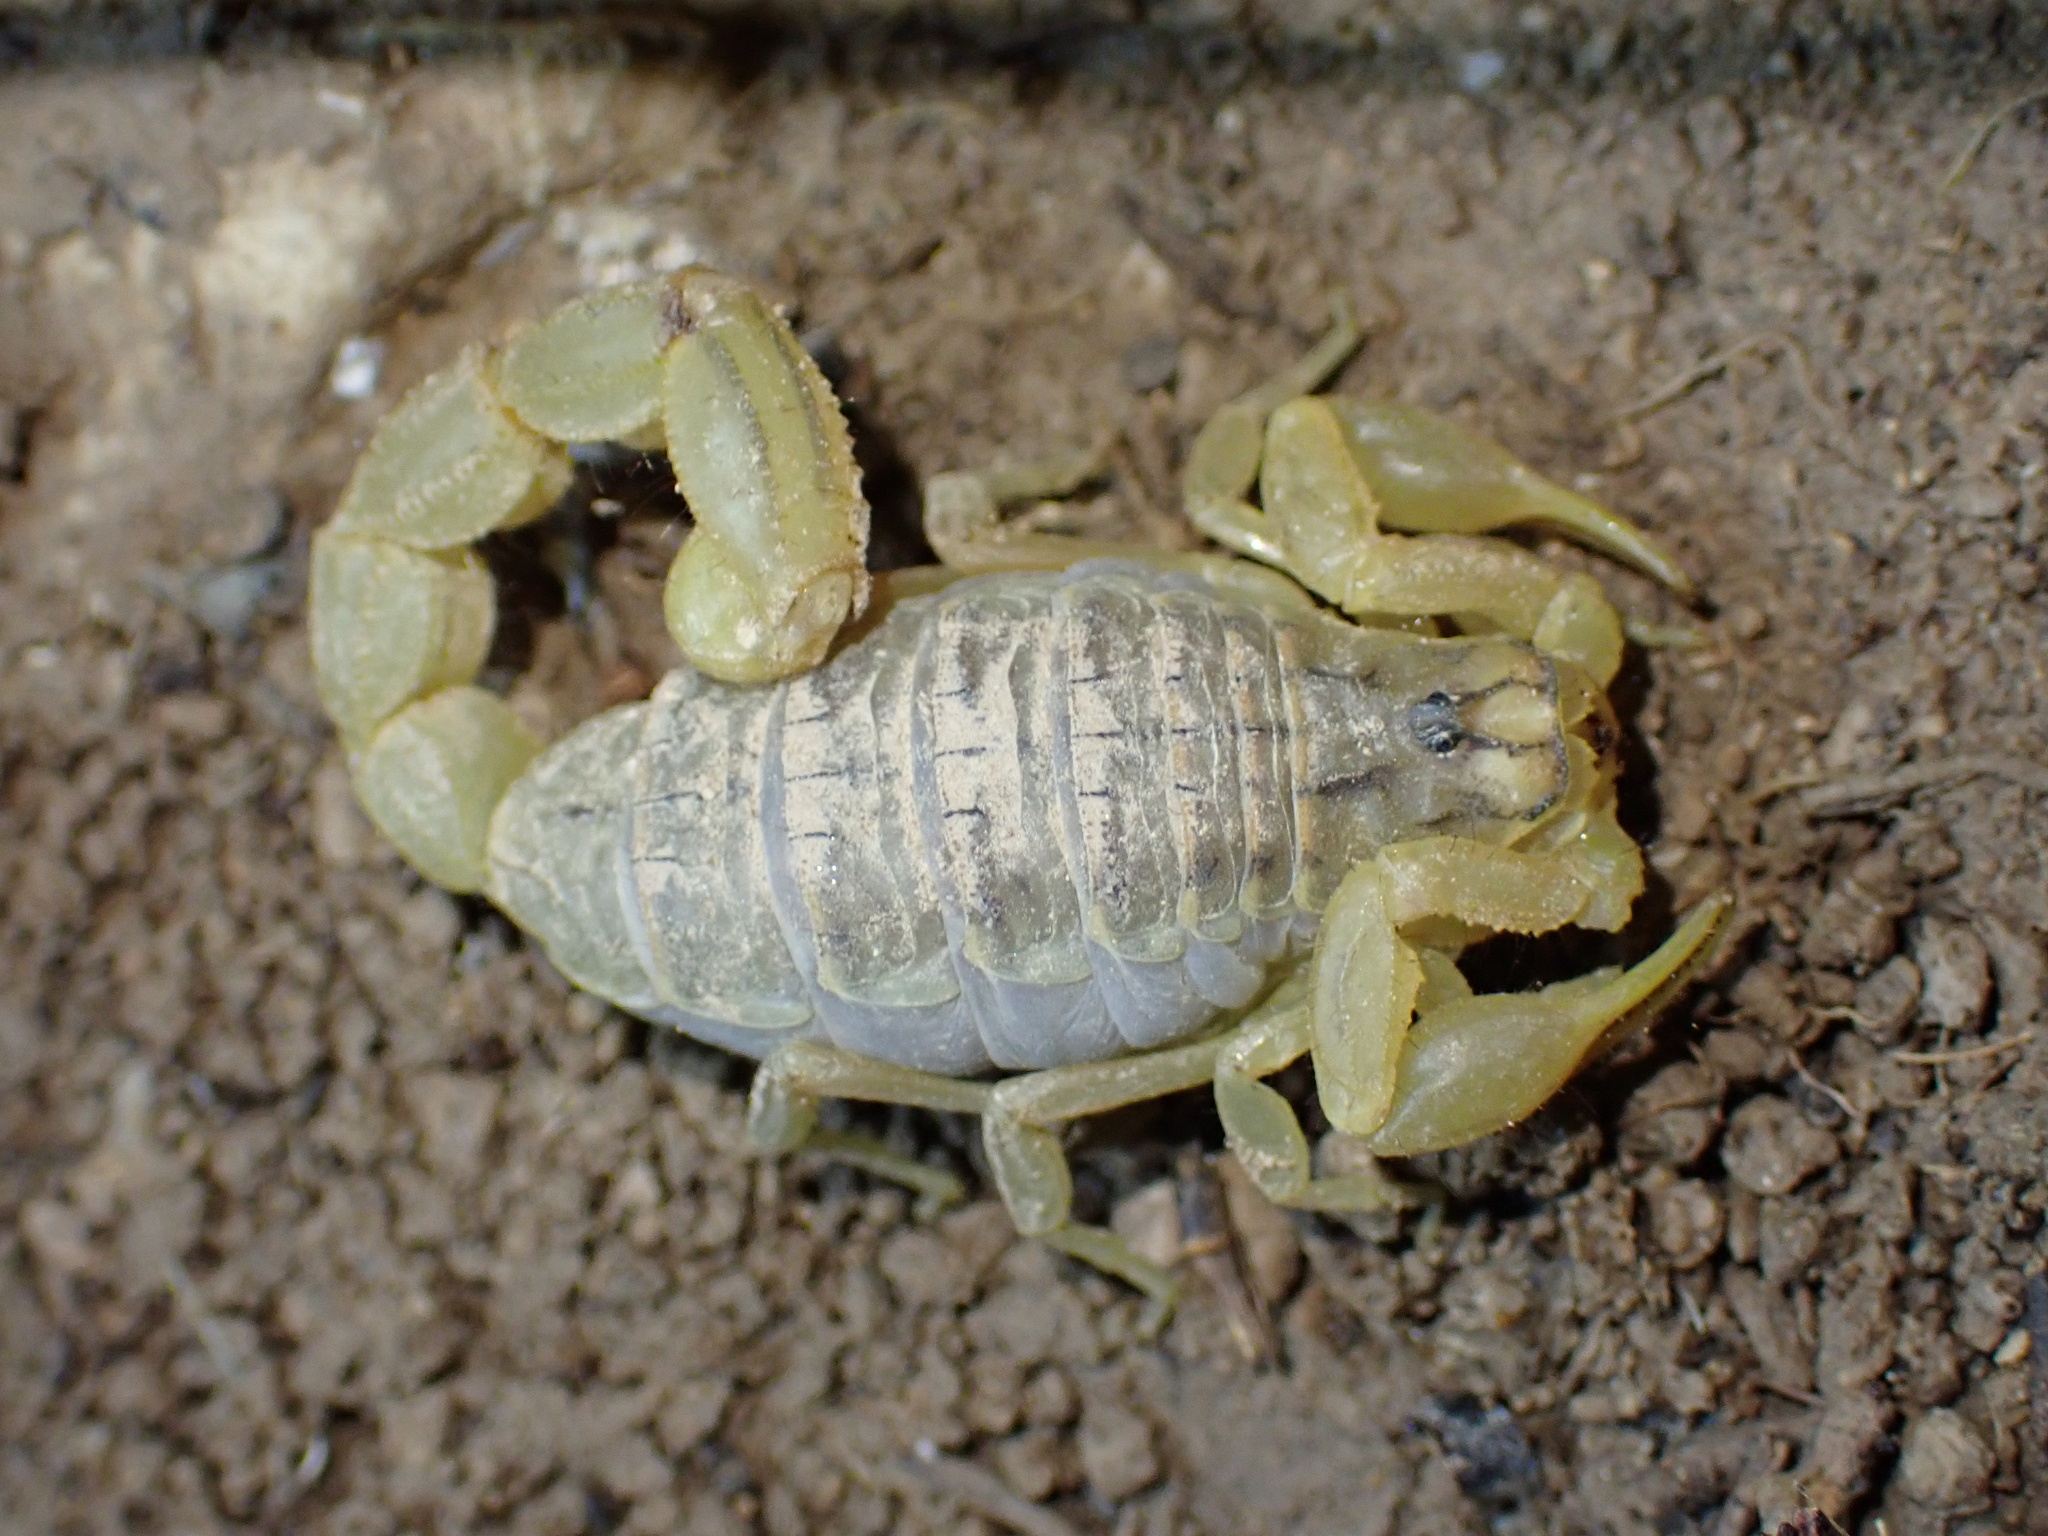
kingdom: Animalia
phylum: Arthropoda
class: Arachnida
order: Scorpiones
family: Buthidae
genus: Mesobuthus
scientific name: Mesobuthus phillipsi
